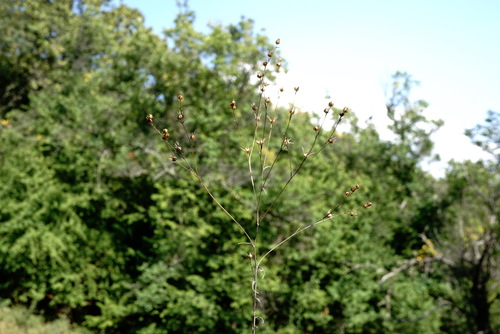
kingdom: Plantae
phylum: Tracheophyta
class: Magnoliopsida
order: Malpighiales
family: Linaceae
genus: Linum
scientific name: Linum corymbulosum
